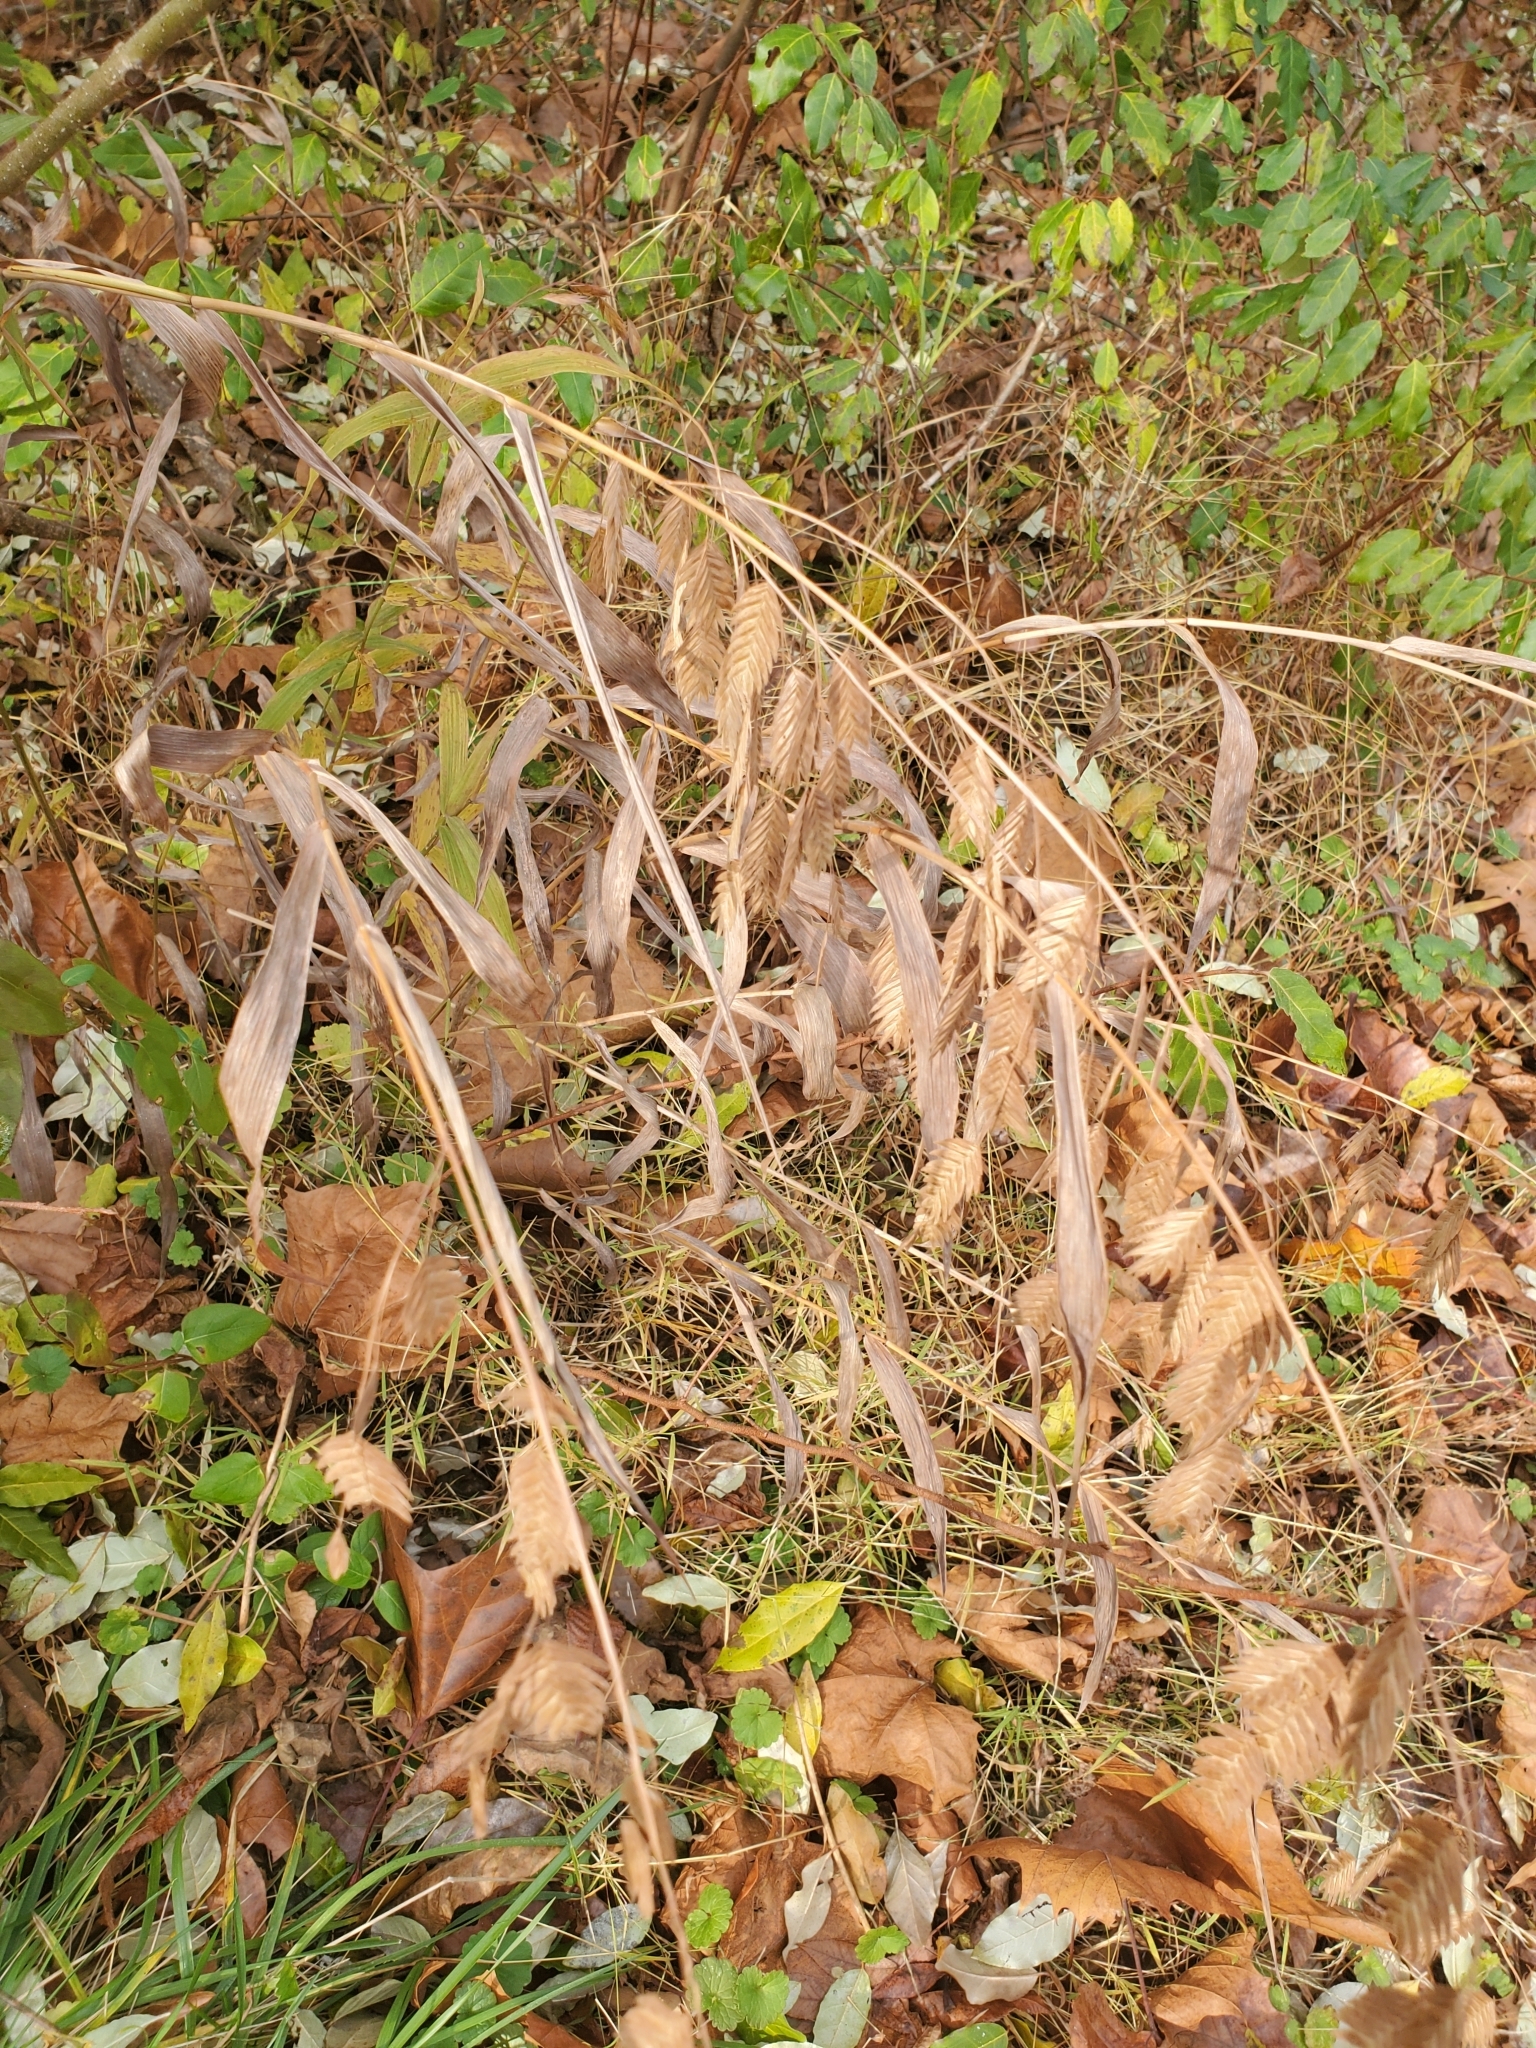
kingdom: Plantae
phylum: Tracheophyta
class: Liliopsida
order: Poales
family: Poaceae
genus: Chasmanthium
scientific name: Chasmanthium latifolium
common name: Broad-leaved chasmanthium
